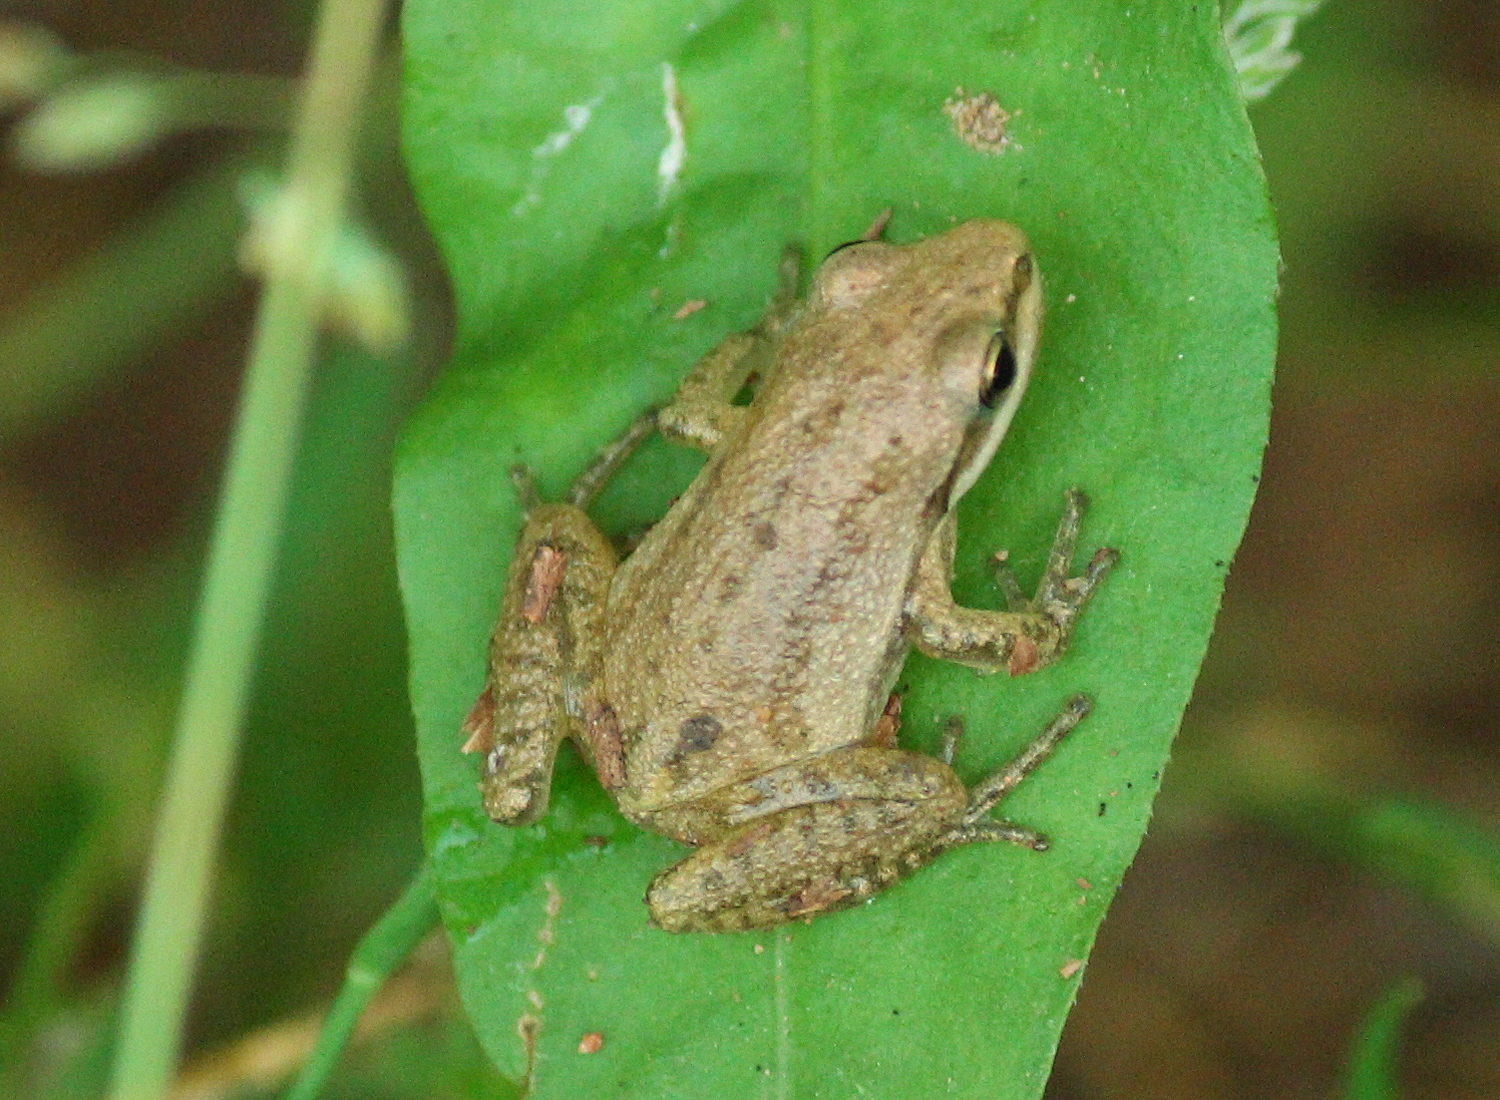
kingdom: Animalia
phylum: Chordata
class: Amphibia
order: Anura
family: Hylidae
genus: Pseudacris
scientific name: Pseudacris fouquettei
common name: Cajun chorus frog
